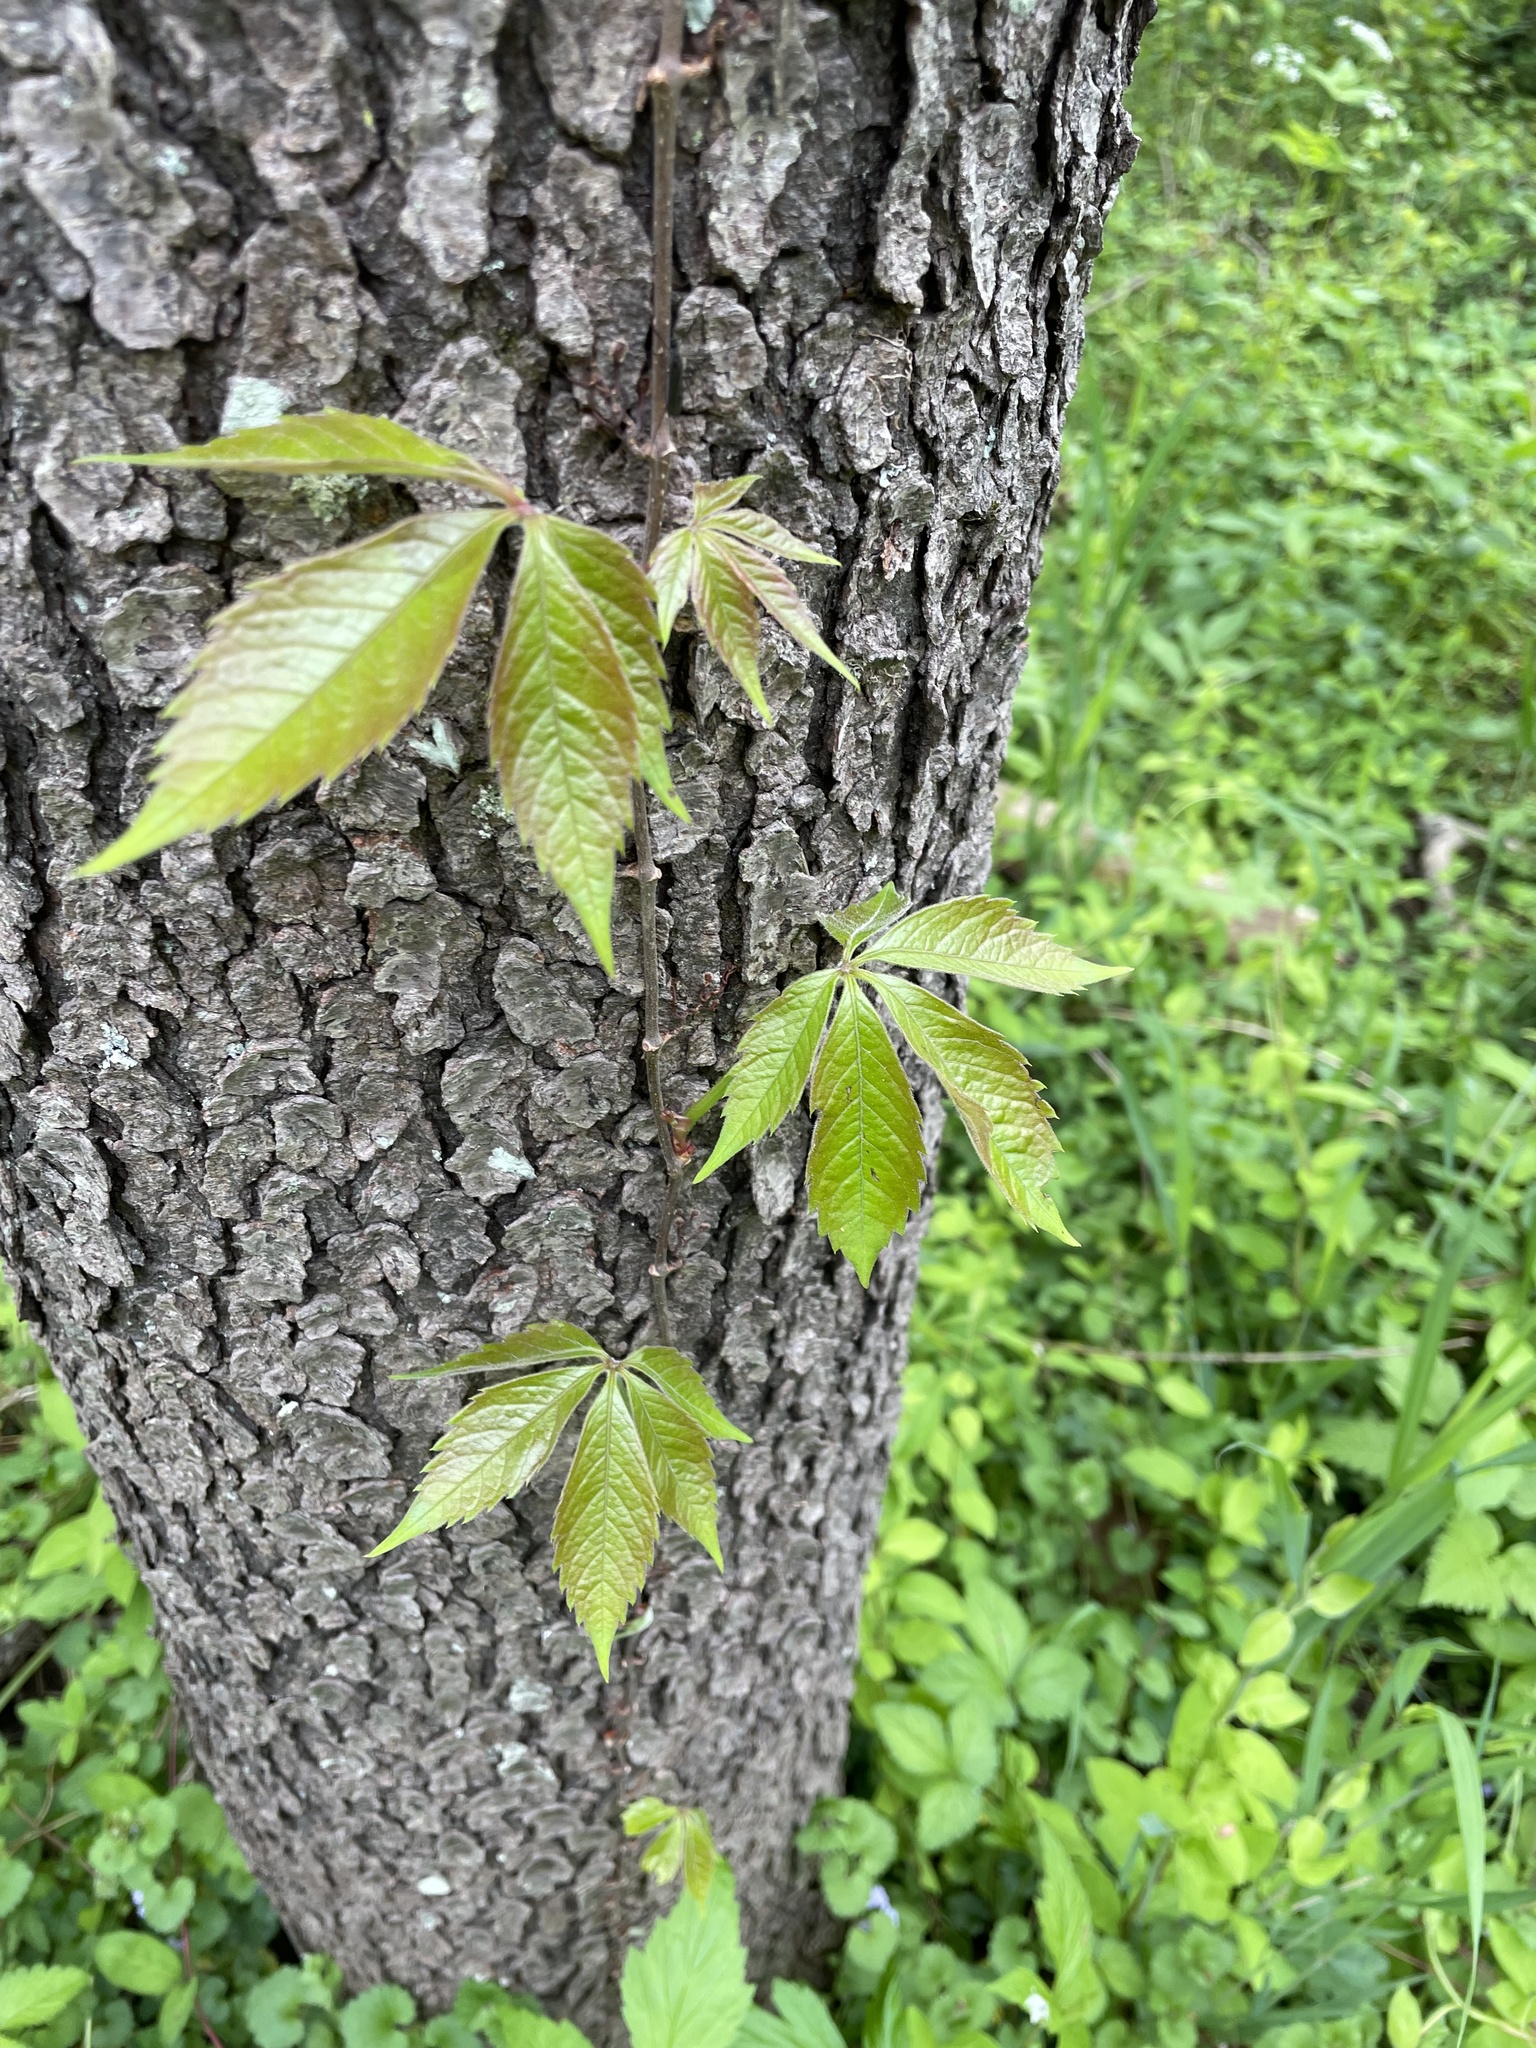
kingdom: Plantae
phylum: Tracheophyta
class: Magnoliopsida
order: Vitales
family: Vitaceae
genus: Parthenocissus
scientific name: Parthenocissus quinquefolia
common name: Virginia-creeper
